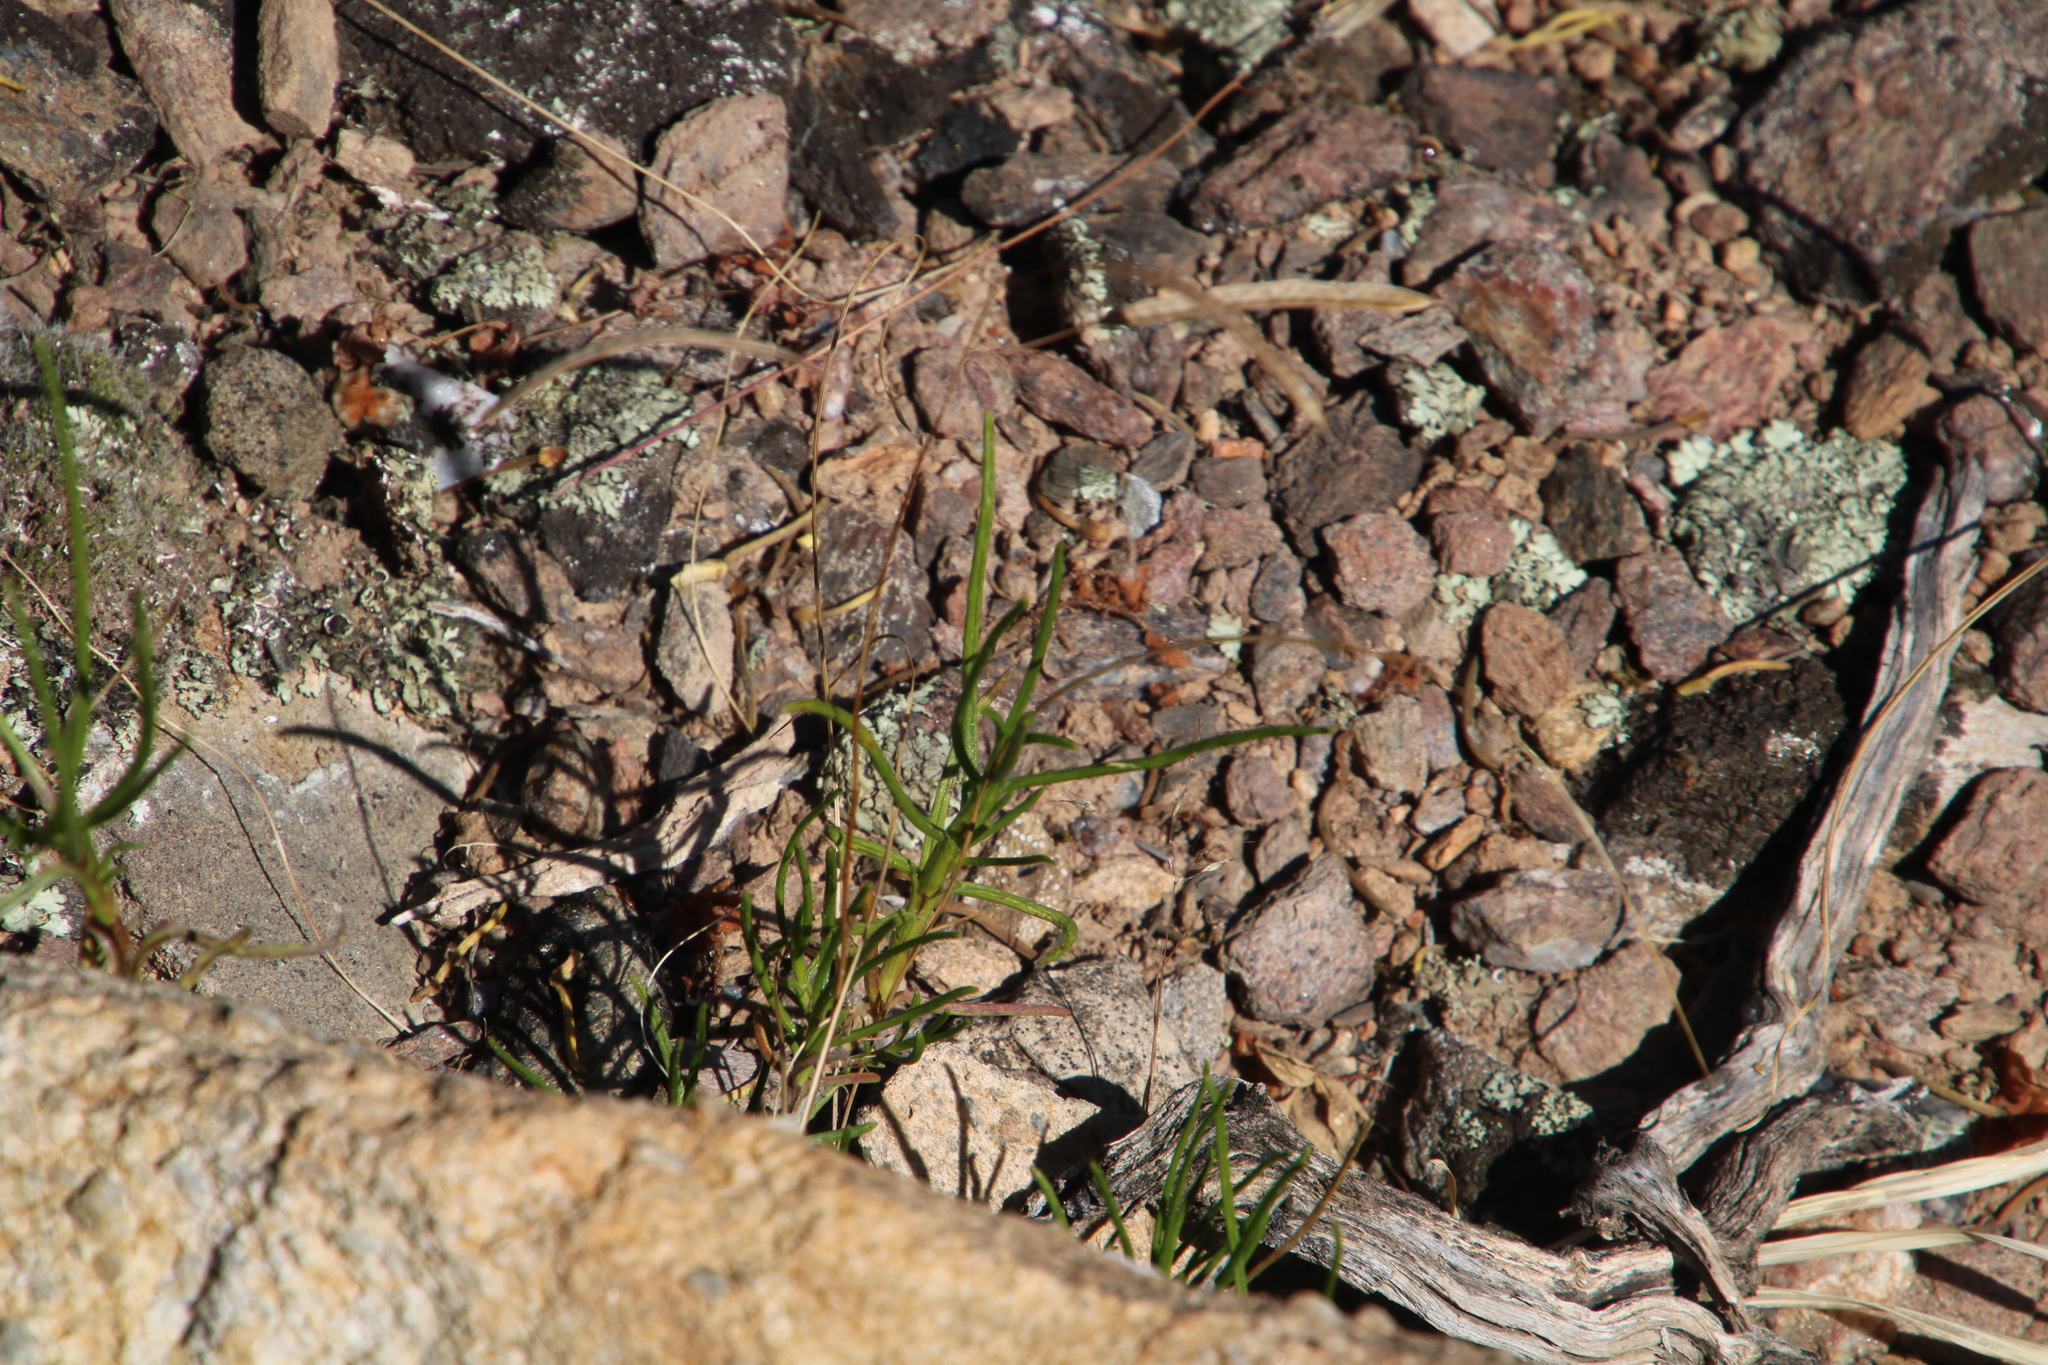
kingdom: Plantae
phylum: Tracheophyta
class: Magnoliopsida
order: Brassicales
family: Brassicaceae
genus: Heliophila
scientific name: Heliophila crithmifolia
